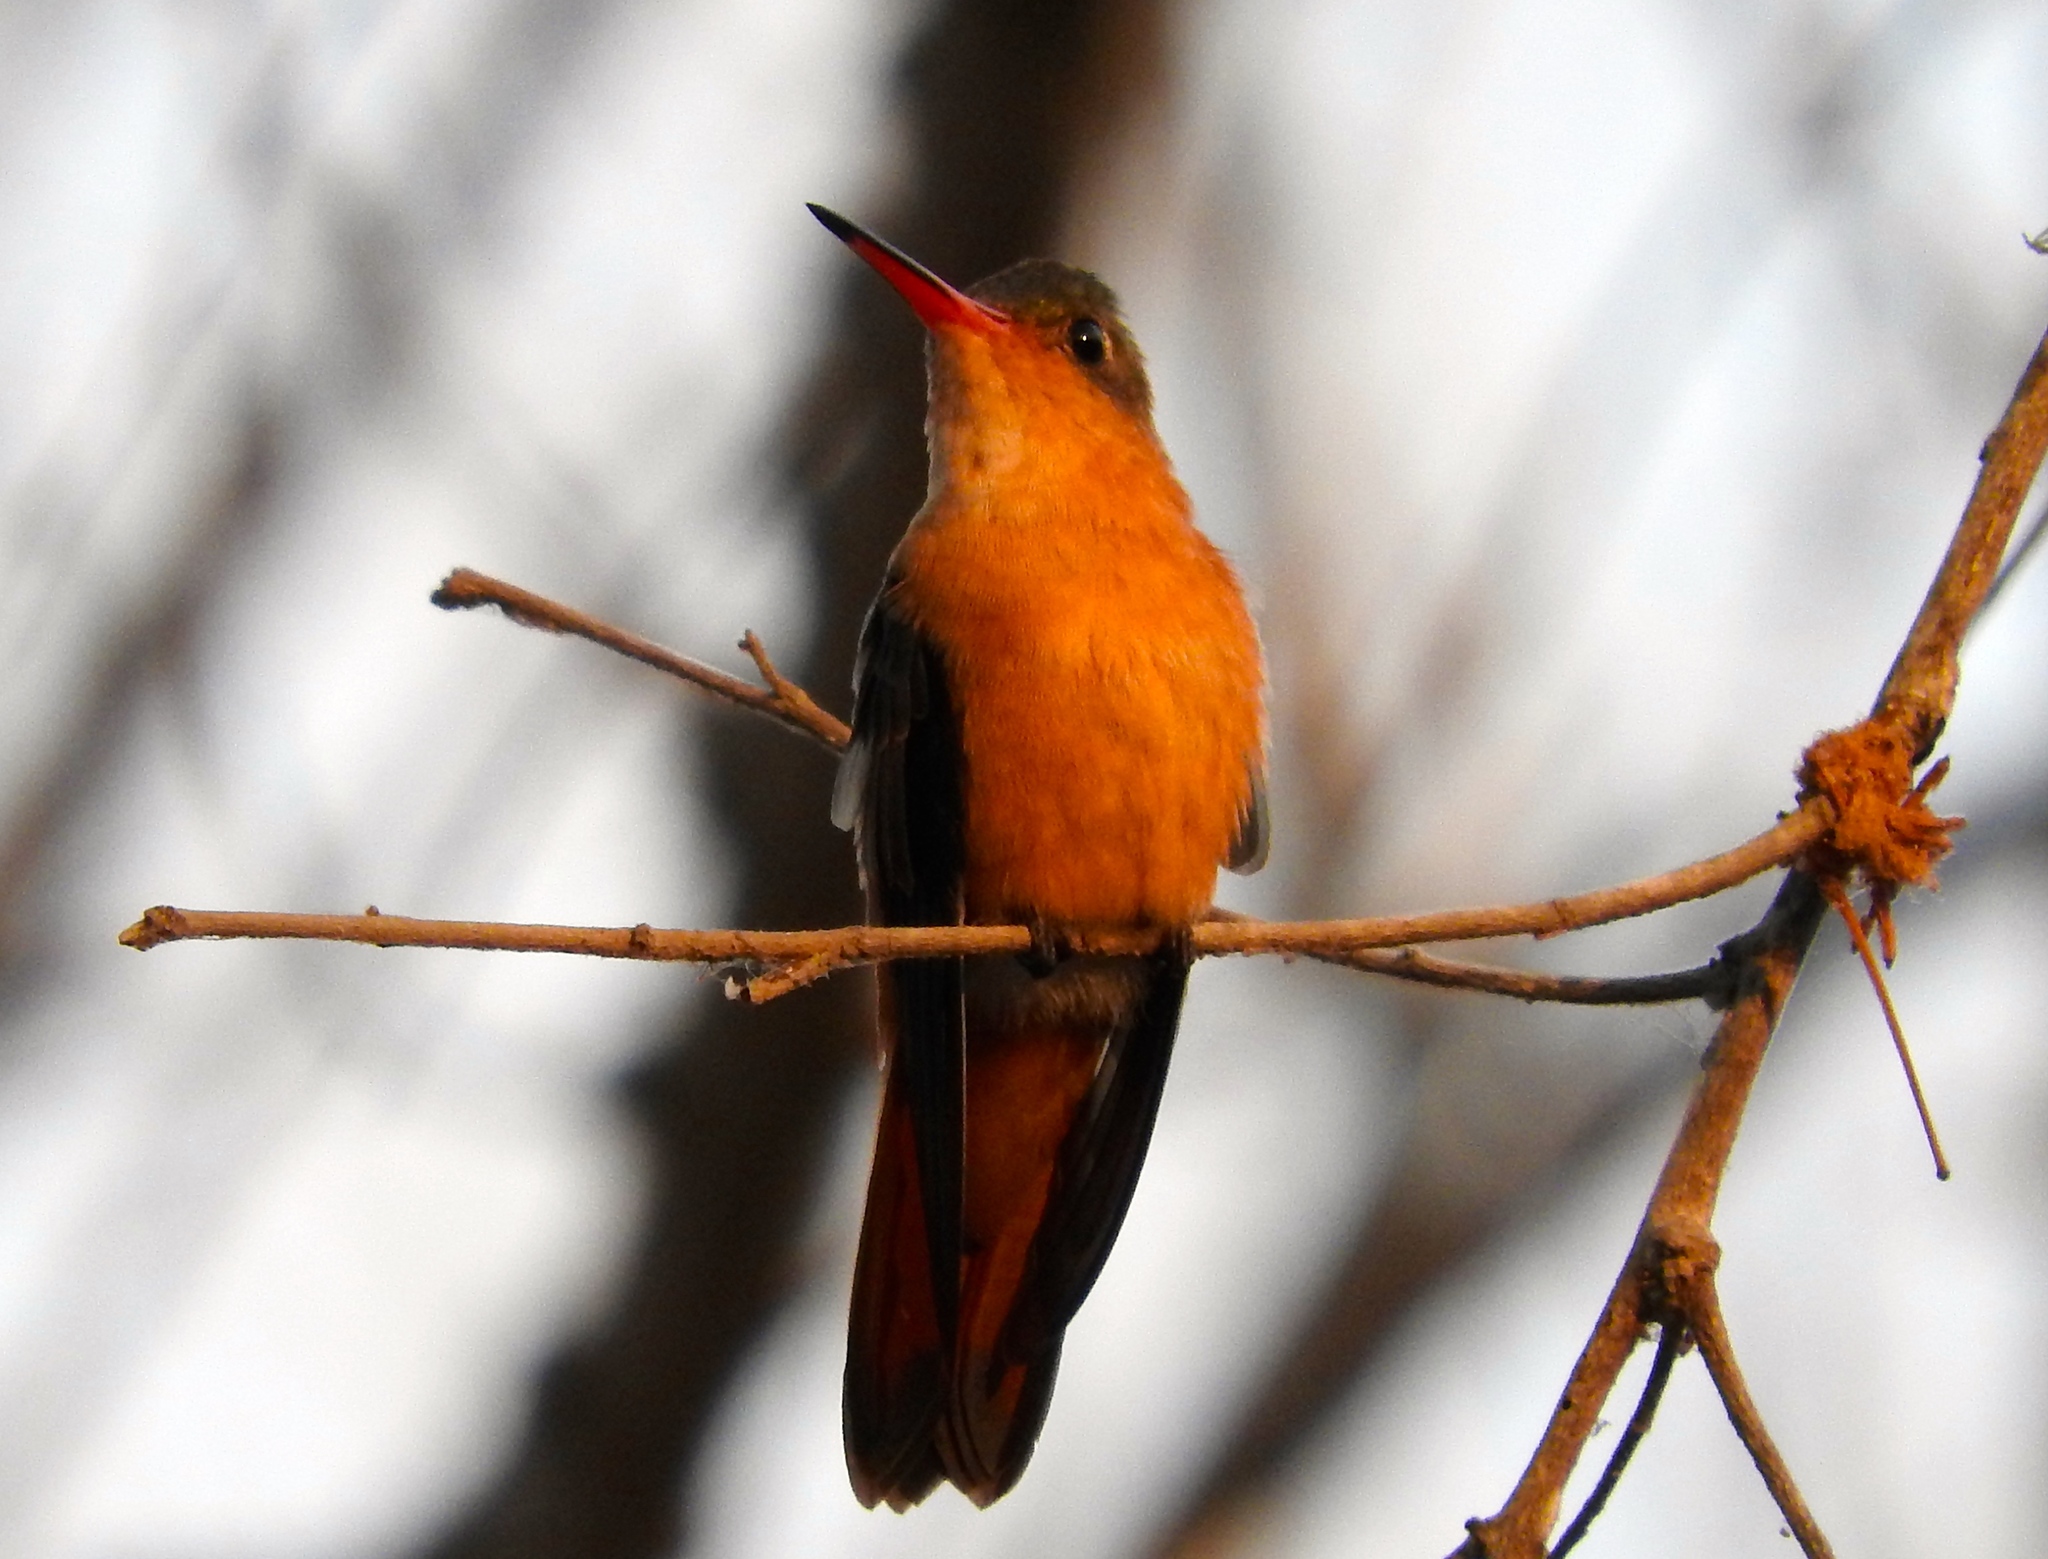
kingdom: Animalia
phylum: Chordata
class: Aves
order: Apodiformes
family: Trochilidae
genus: Amazilia
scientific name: Amazilia rutila
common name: Cinnamon hummingbird
